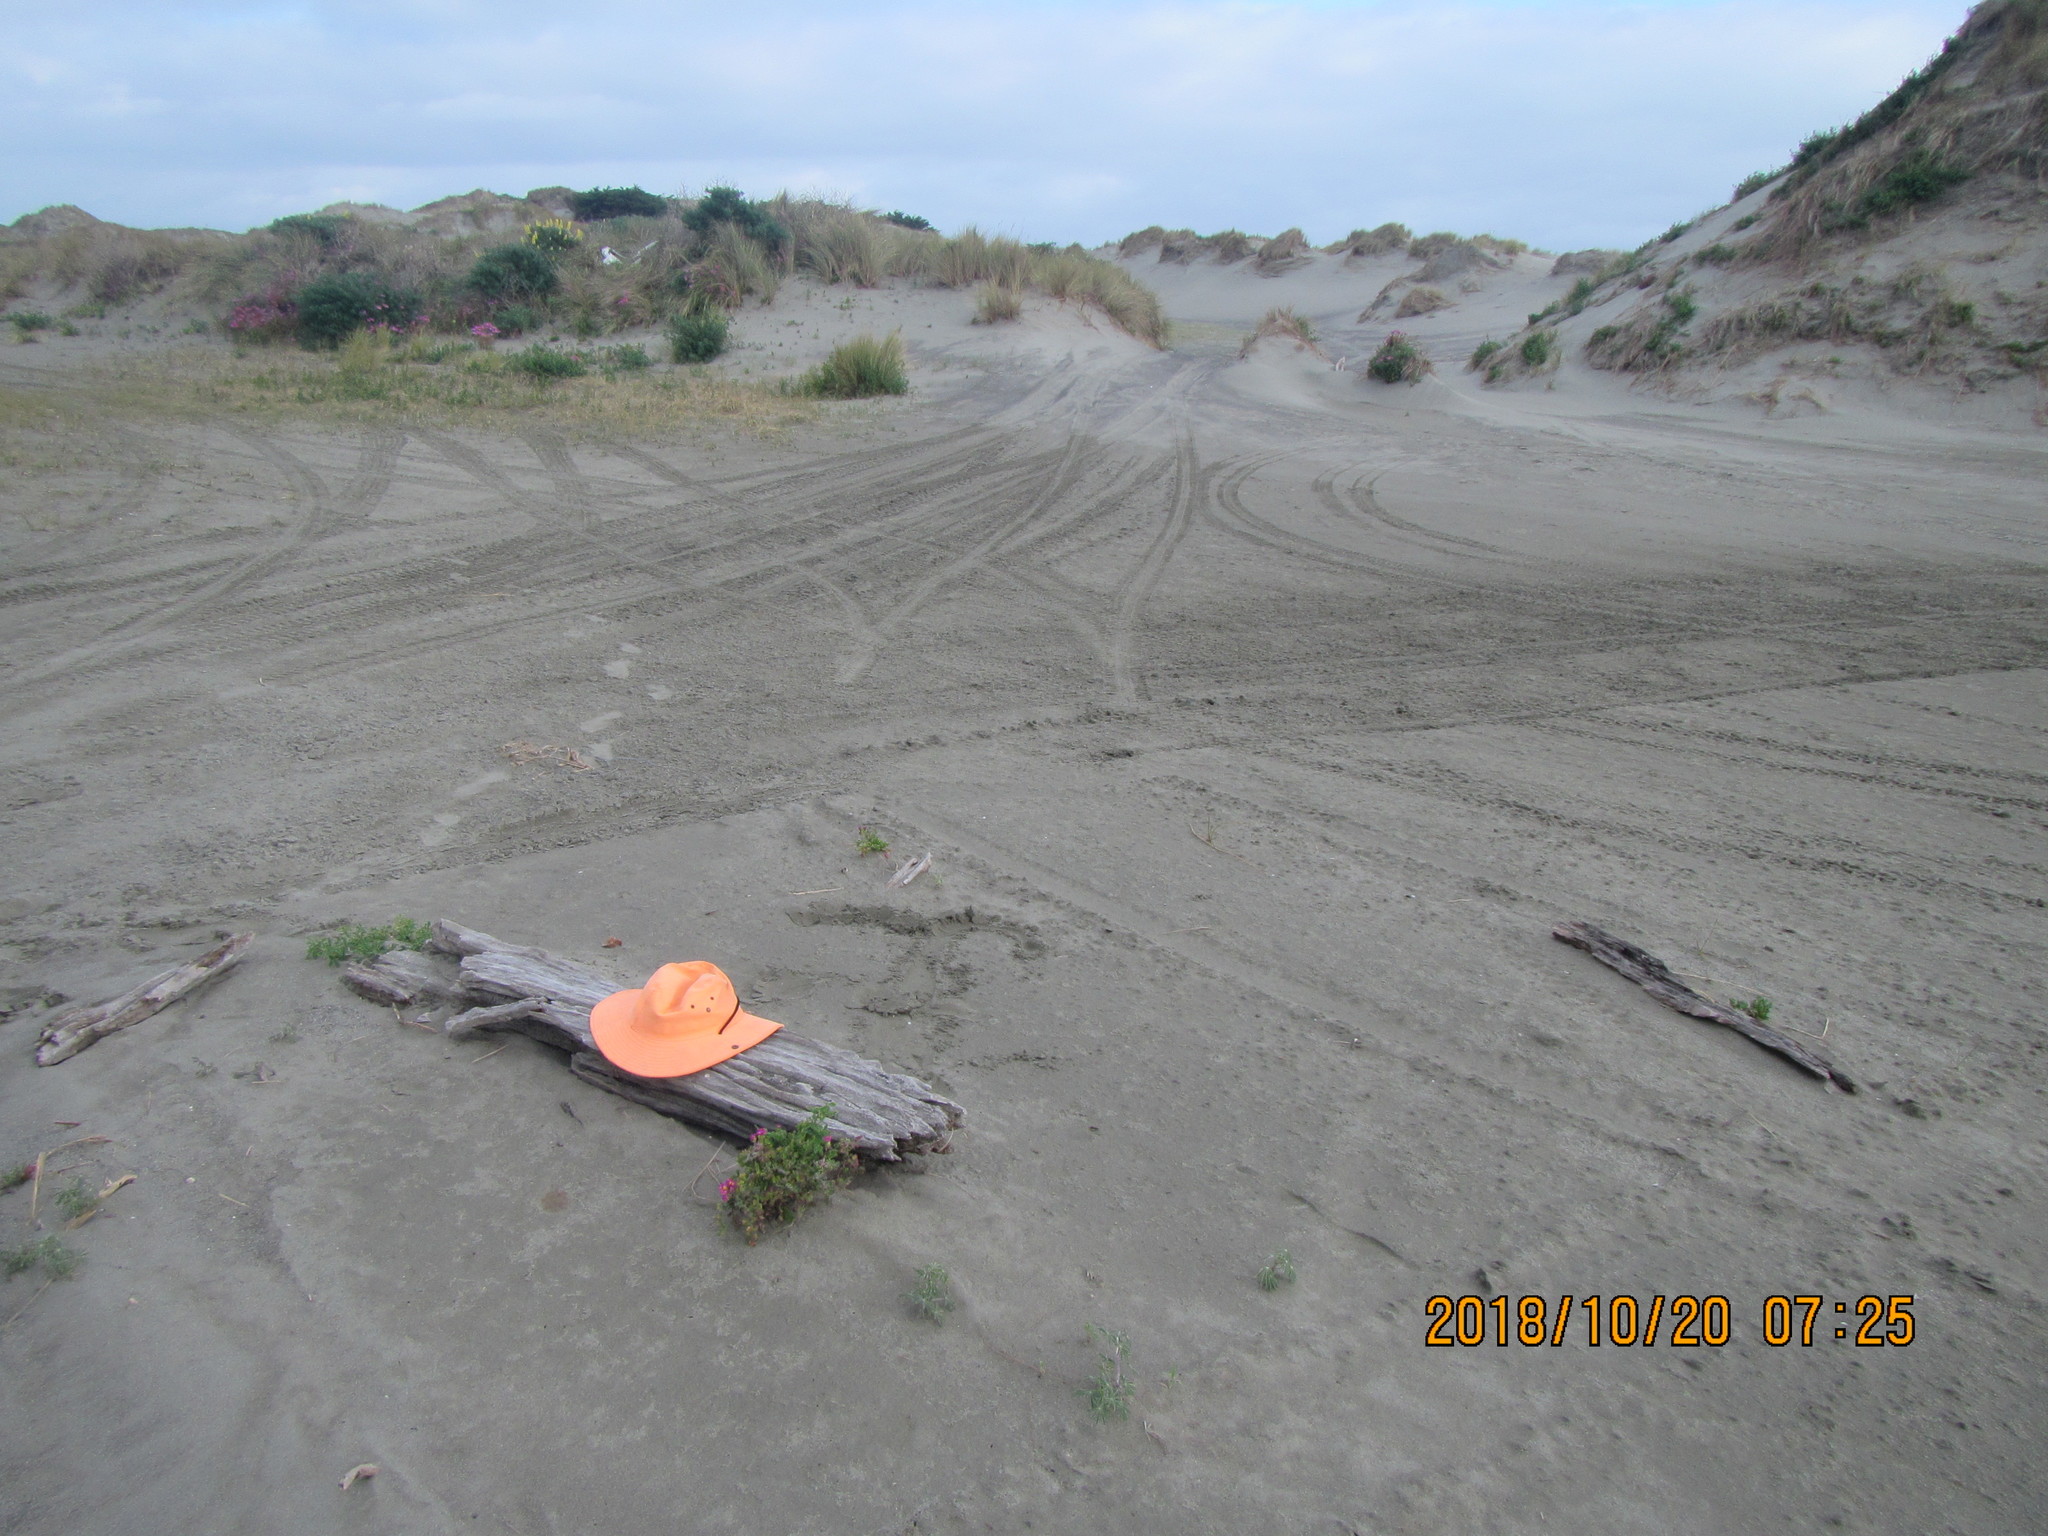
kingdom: Animalia
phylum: Arthropoda
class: Arachnida
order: Araneae
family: Theridiidae
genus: Steatoda
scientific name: Steatoda capensis
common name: Cobweb weaver
